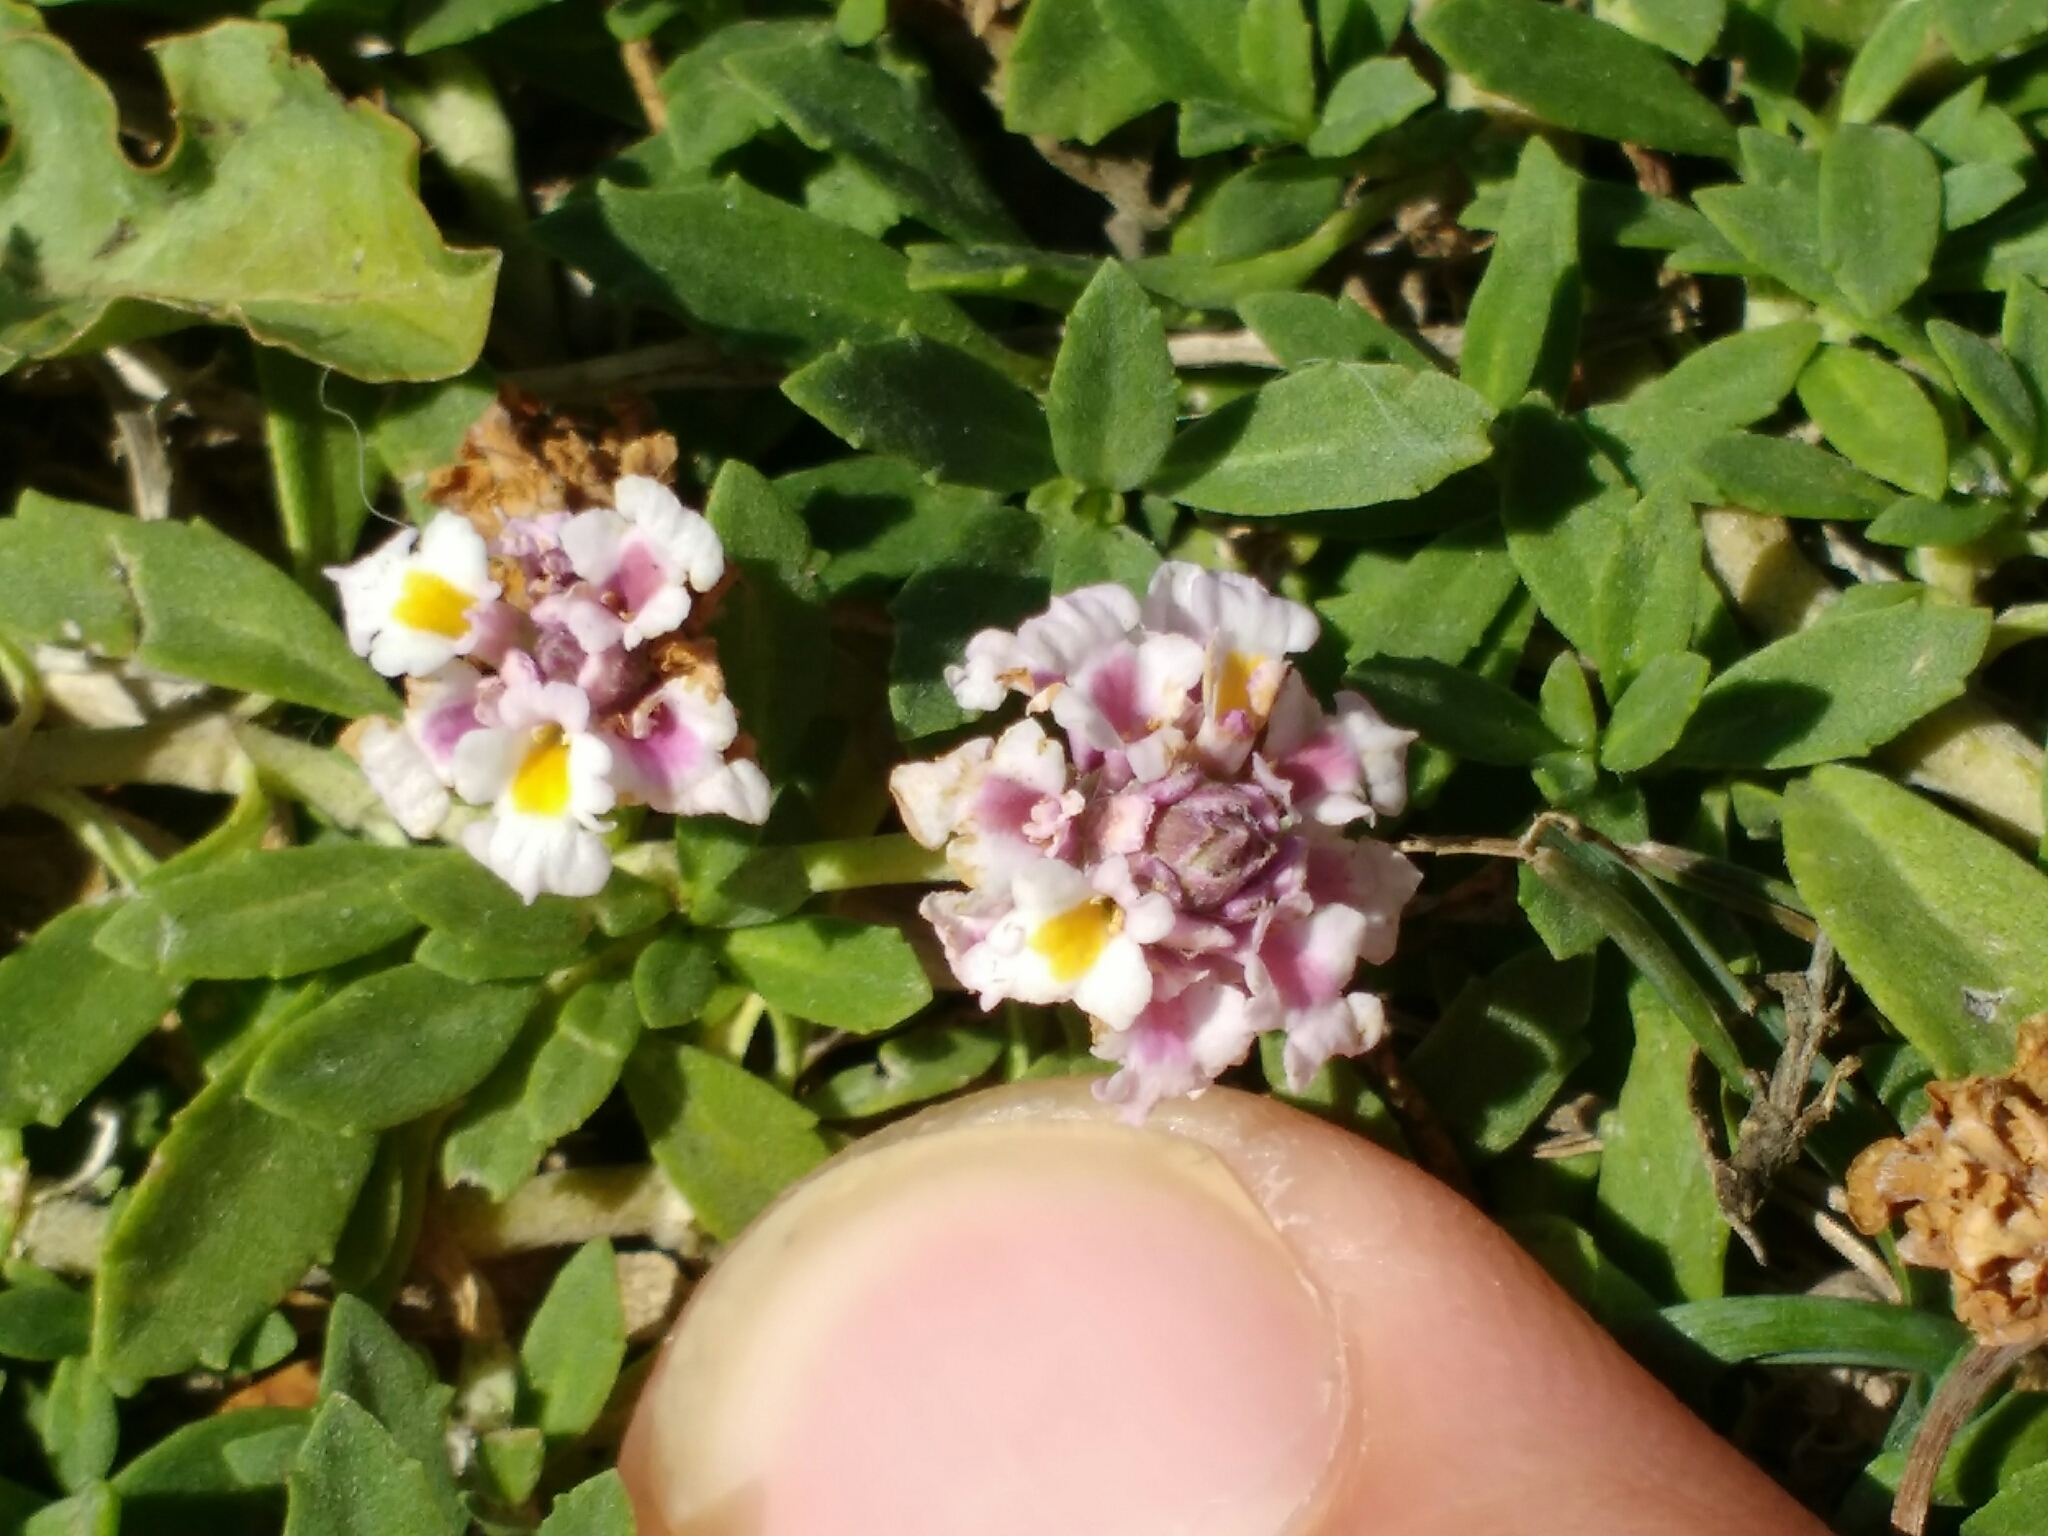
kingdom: Plantae
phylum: Tracheophyta
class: Magnoliopsida
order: Lamiales
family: Verbenaceae
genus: Phyla
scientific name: Phyla nodiflora
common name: Frogfruit
